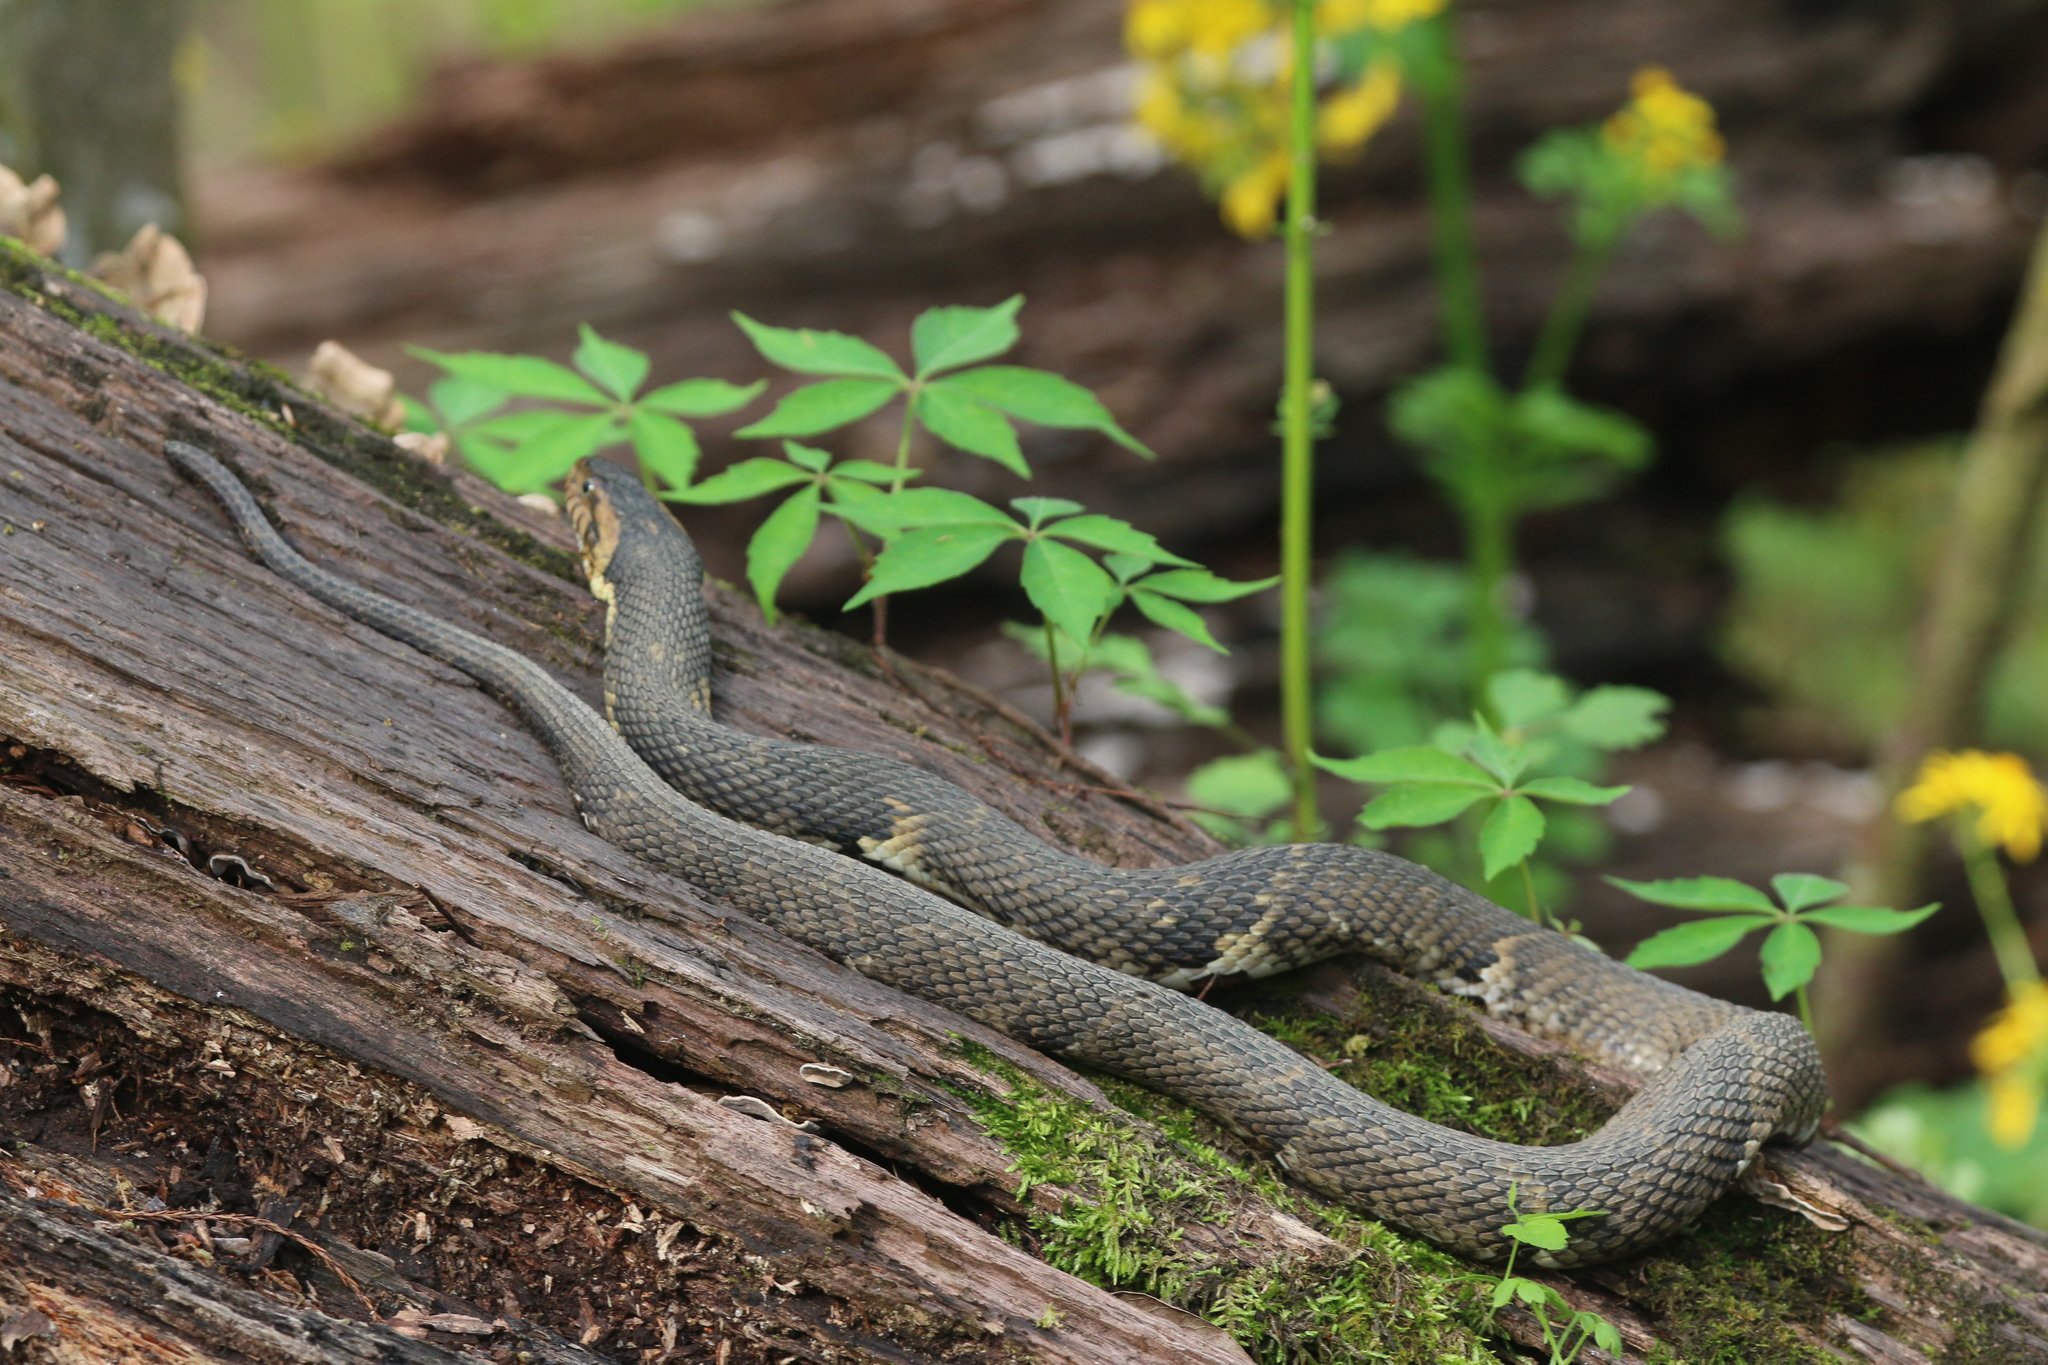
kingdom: Animalia
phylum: Chordata
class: Squamata
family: Colubridae
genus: Nerodia
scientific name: Nerodia fasciata
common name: Southern water snake
